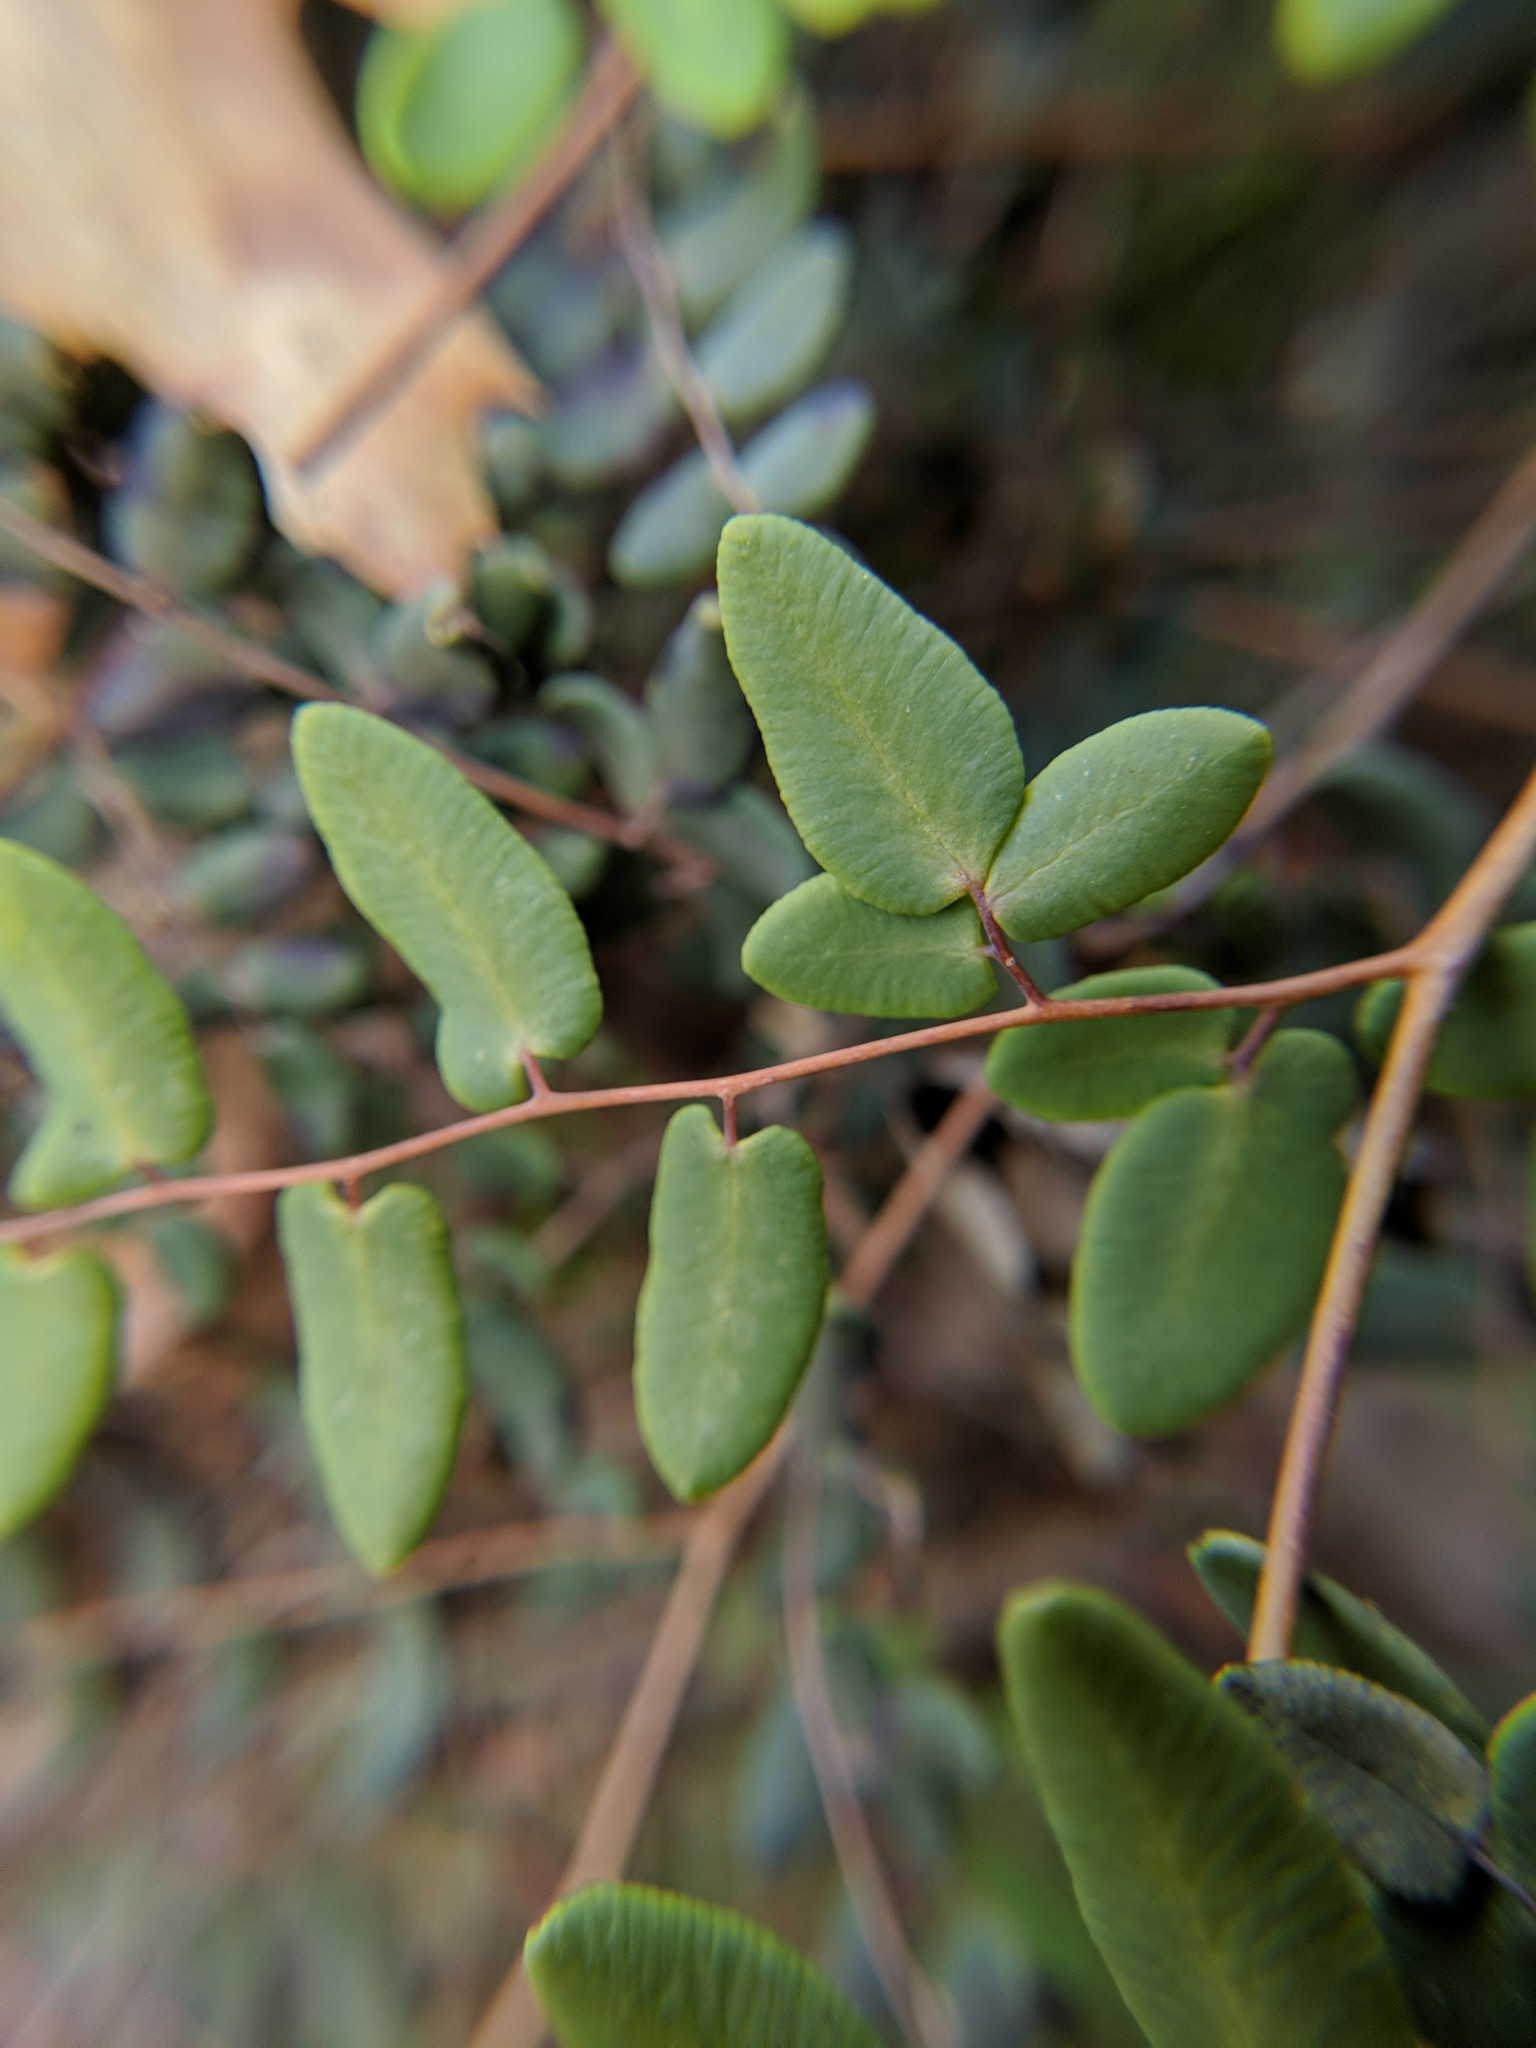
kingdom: Plantae
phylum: Tracheophyta
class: Polypodiopsida
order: Polypodiales
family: Pteridaceae
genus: Pellaea
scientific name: Pellaea andromedifolia
